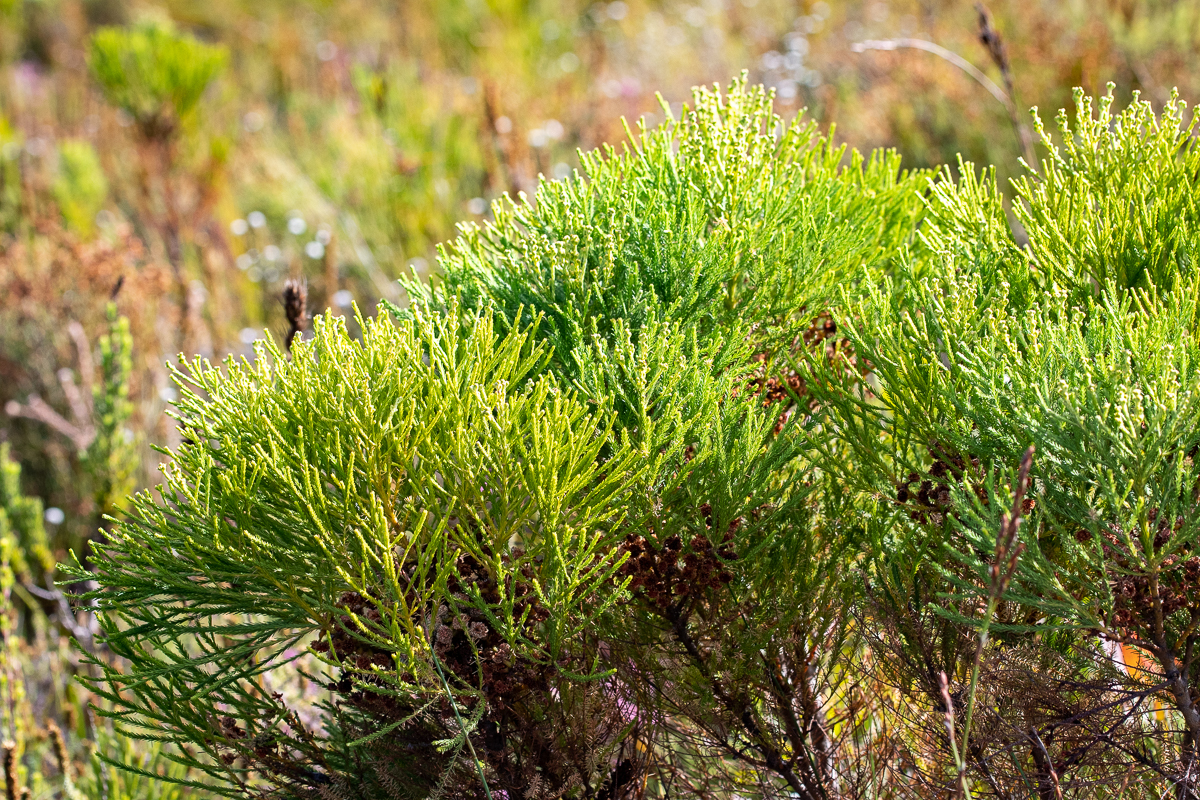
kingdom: Plantae
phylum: Tracheophyta
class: Magnoliopsida
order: Bruniales
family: Bruniaceae
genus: Berzelia
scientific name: Berzelia alopecurioides
